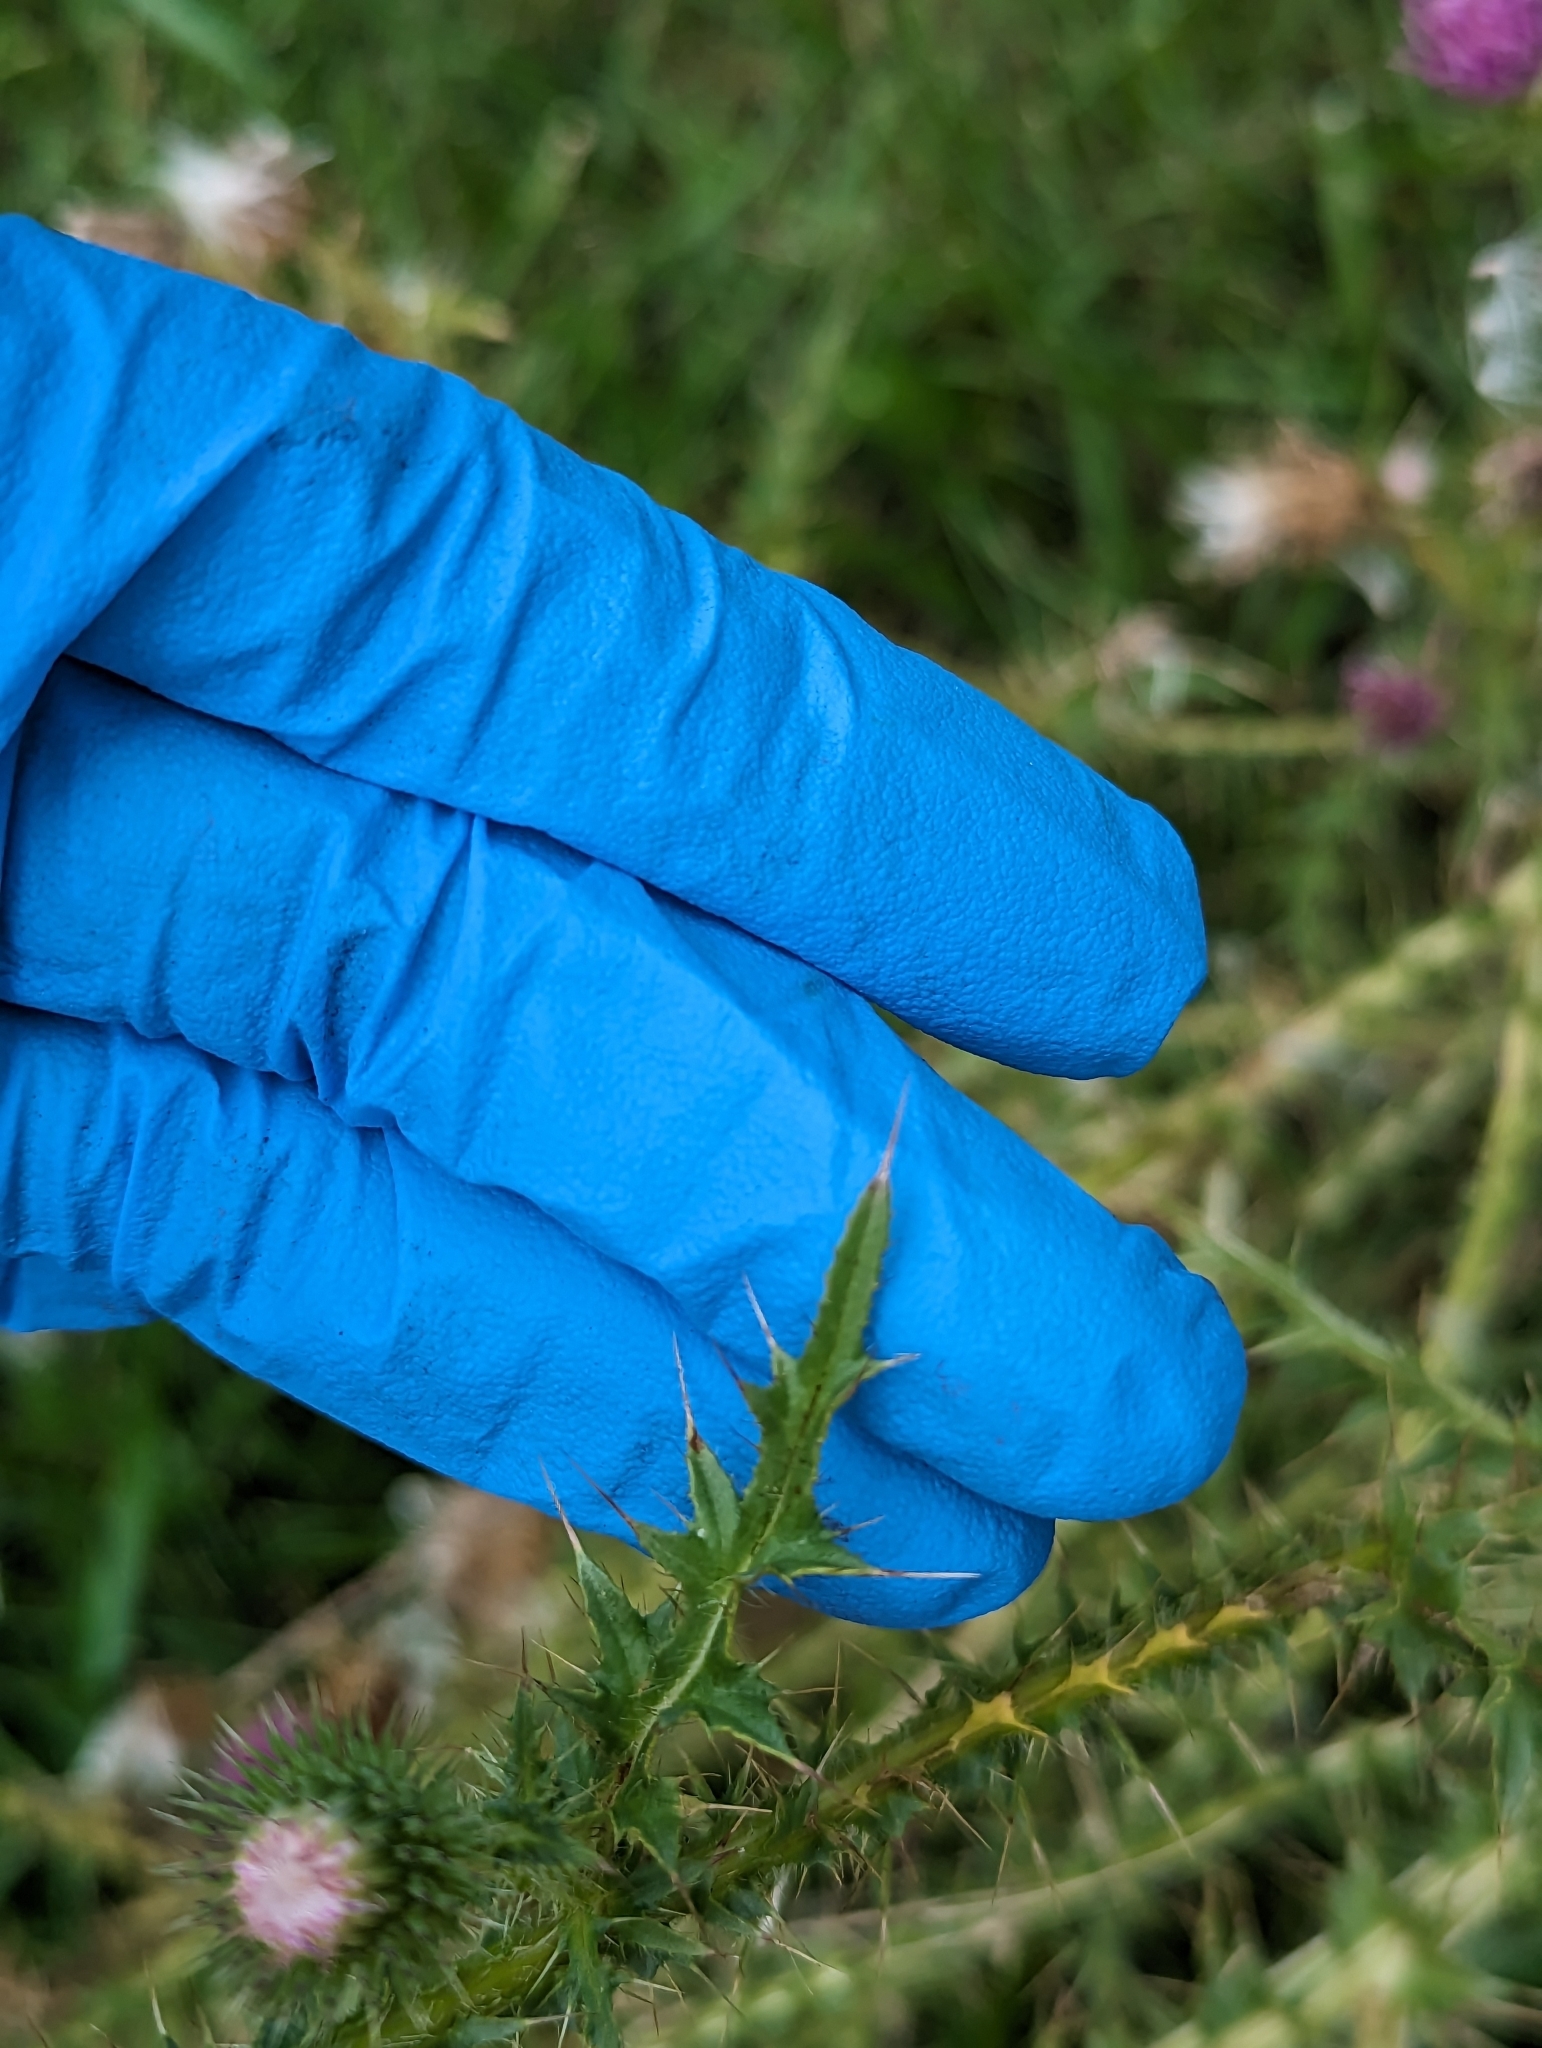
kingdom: Plantae
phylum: Tracheophyta
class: Magnoliopsida
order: Asterales
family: Asteraceae
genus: Carduus
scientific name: Carduus acanthoides
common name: Plumeless thistle
